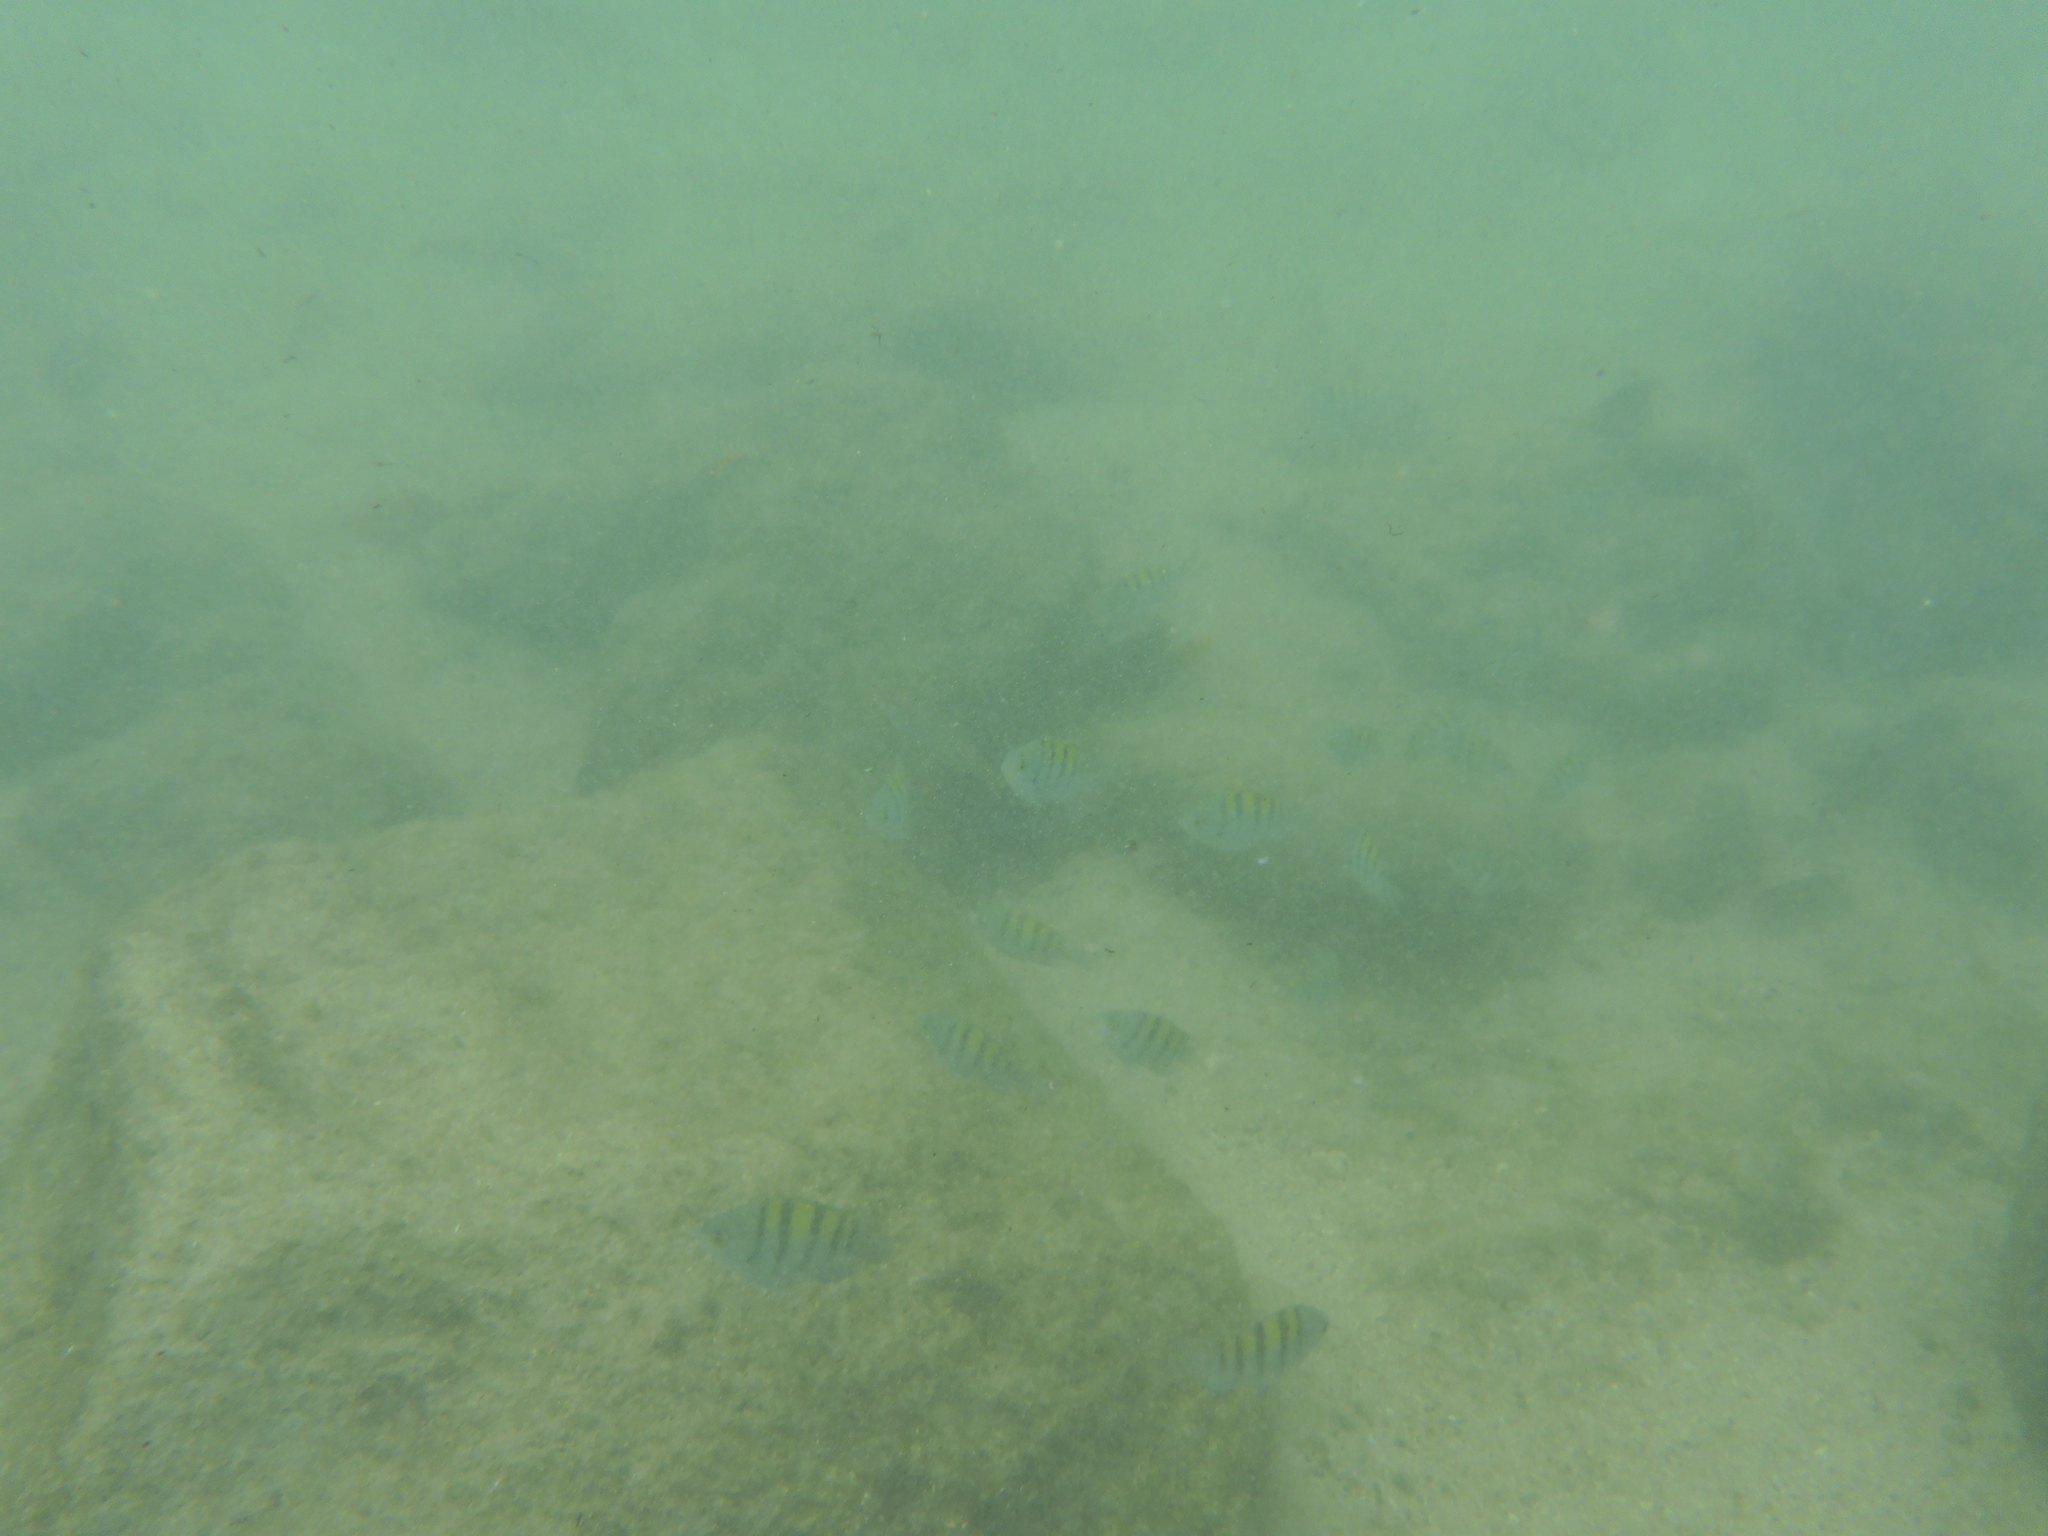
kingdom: Animalia
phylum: Chordata
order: Perciformes
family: Pomacentridae
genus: Abudefduf
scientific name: Abudefduf troschelii
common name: Panamic sergeant major
